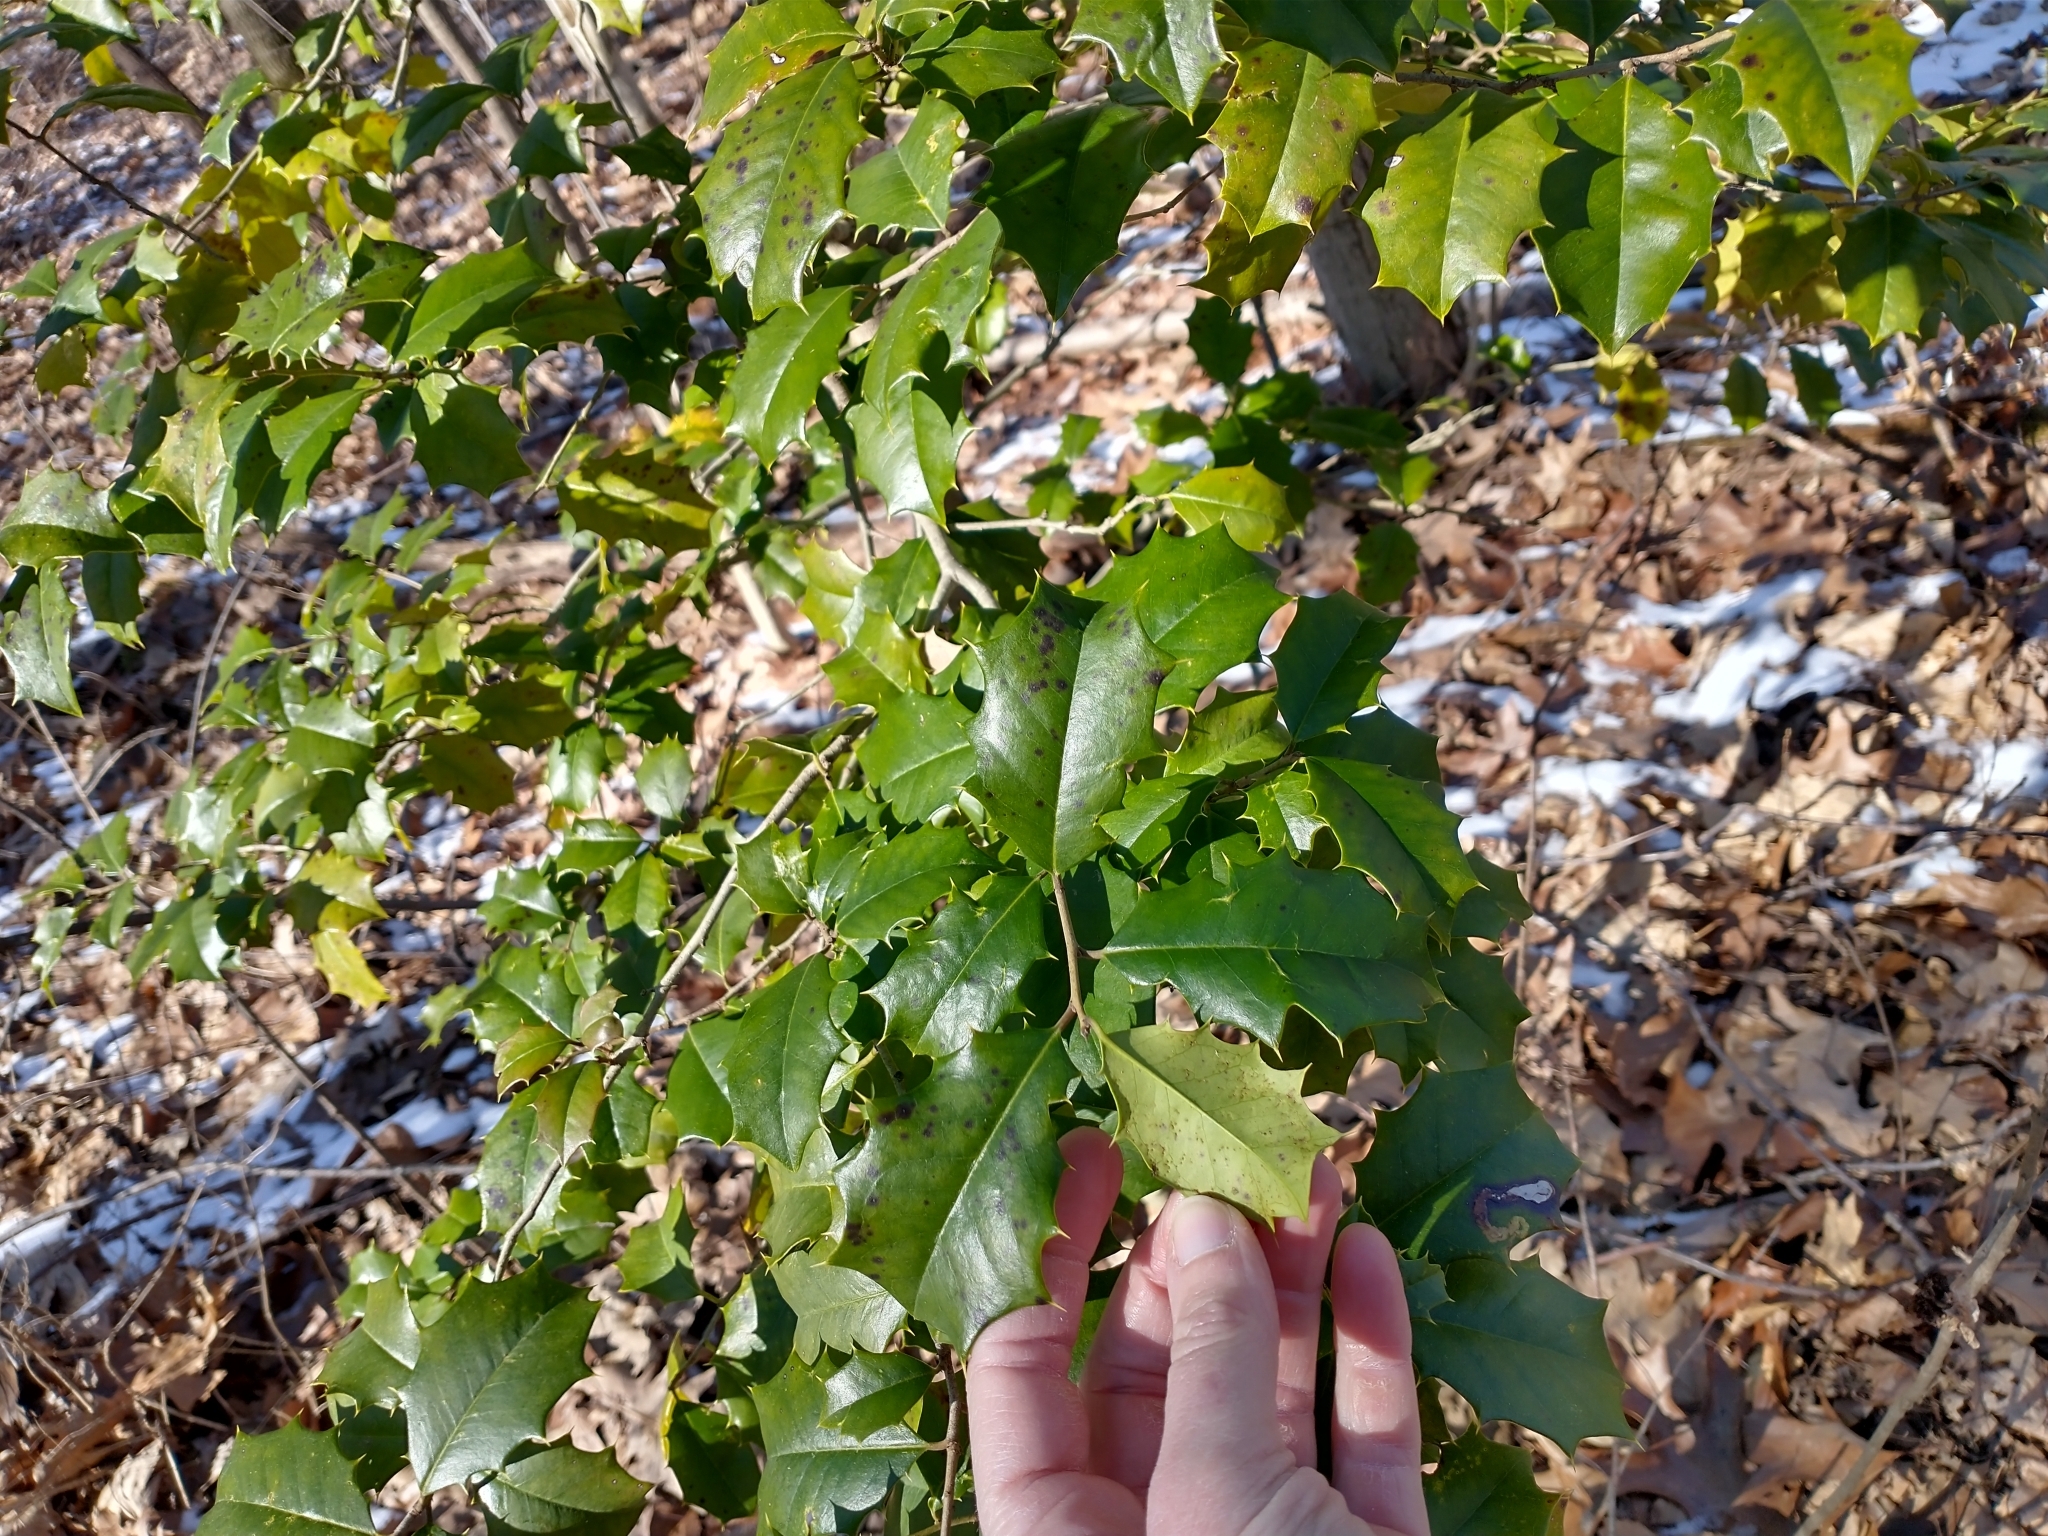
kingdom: Plantae
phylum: Tracheophyta
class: Magnoliopsida
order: Aquifoliales
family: Aquifoliaceae
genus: Ilex
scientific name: Ilex opaca
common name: American holly
